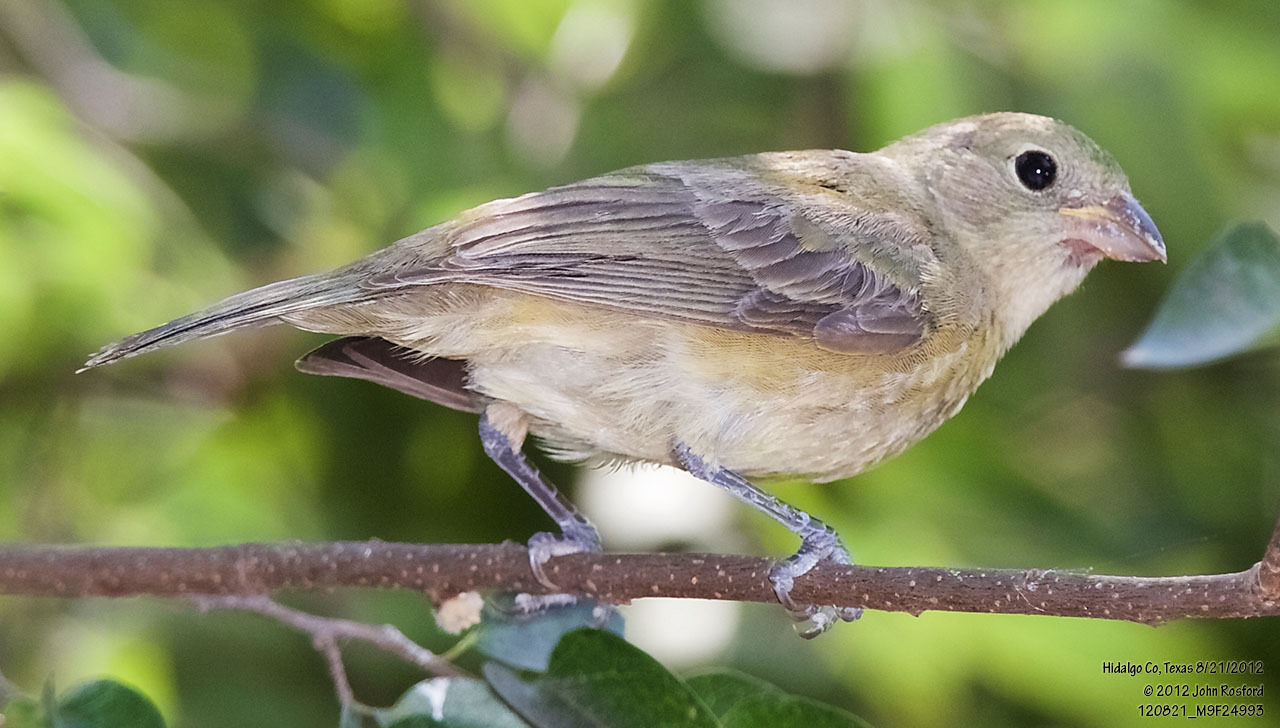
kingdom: Animalia
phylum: Chordata
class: Aves
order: Passeriformes
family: Cardinalidae
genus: Passerina
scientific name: Passerina ciris
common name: Painted bunting
